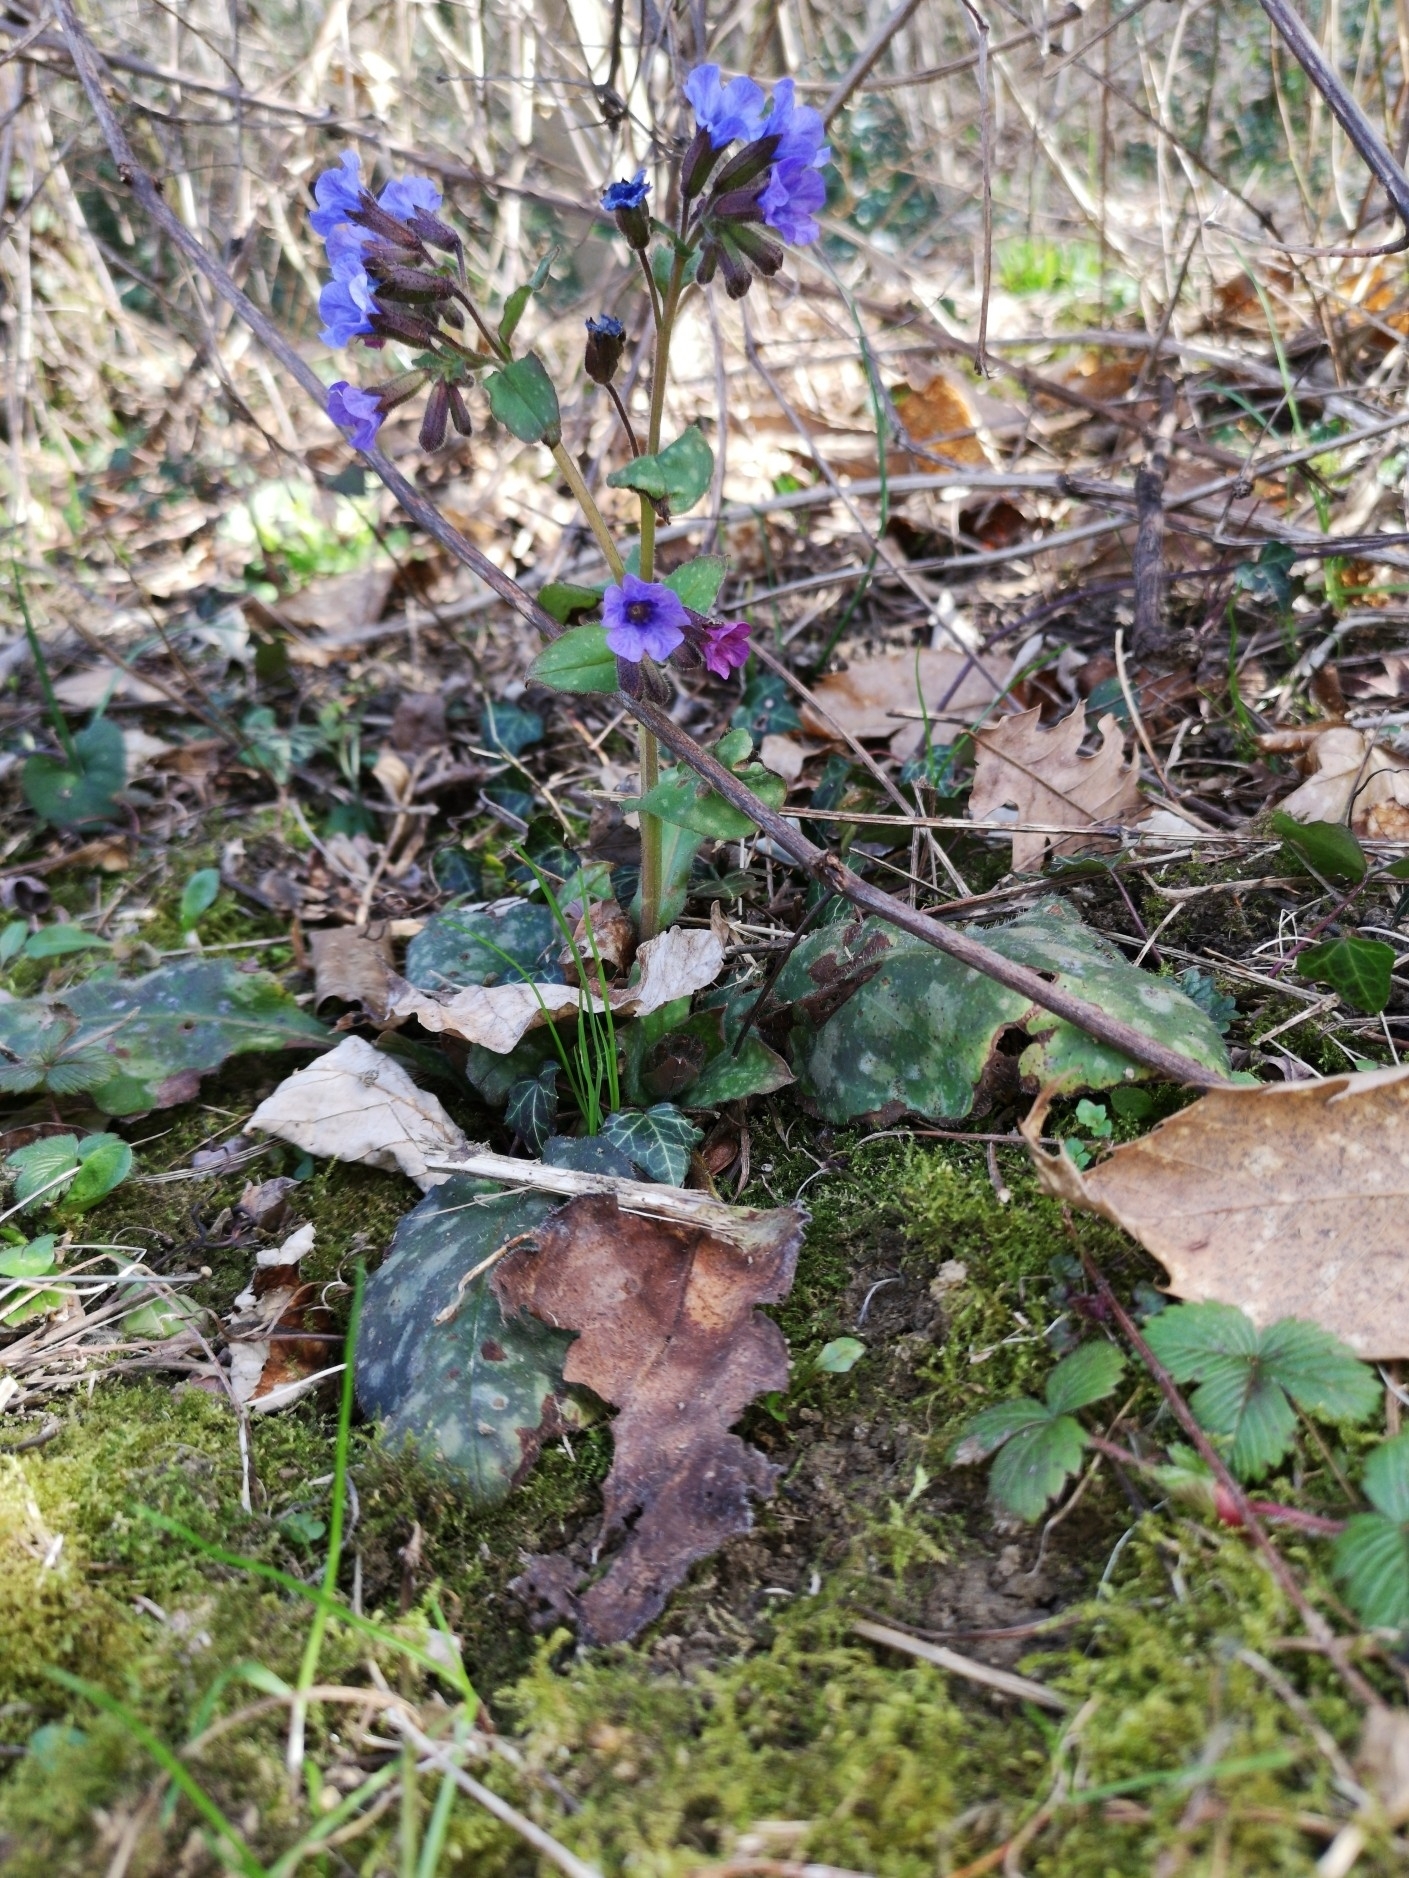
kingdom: Plantae
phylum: Tracheophyta
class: Magnoliopsida
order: Boraginales
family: Boraginaceae
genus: Pulmonaria
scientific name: Pulmonaria officinalis
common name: Lungwort
